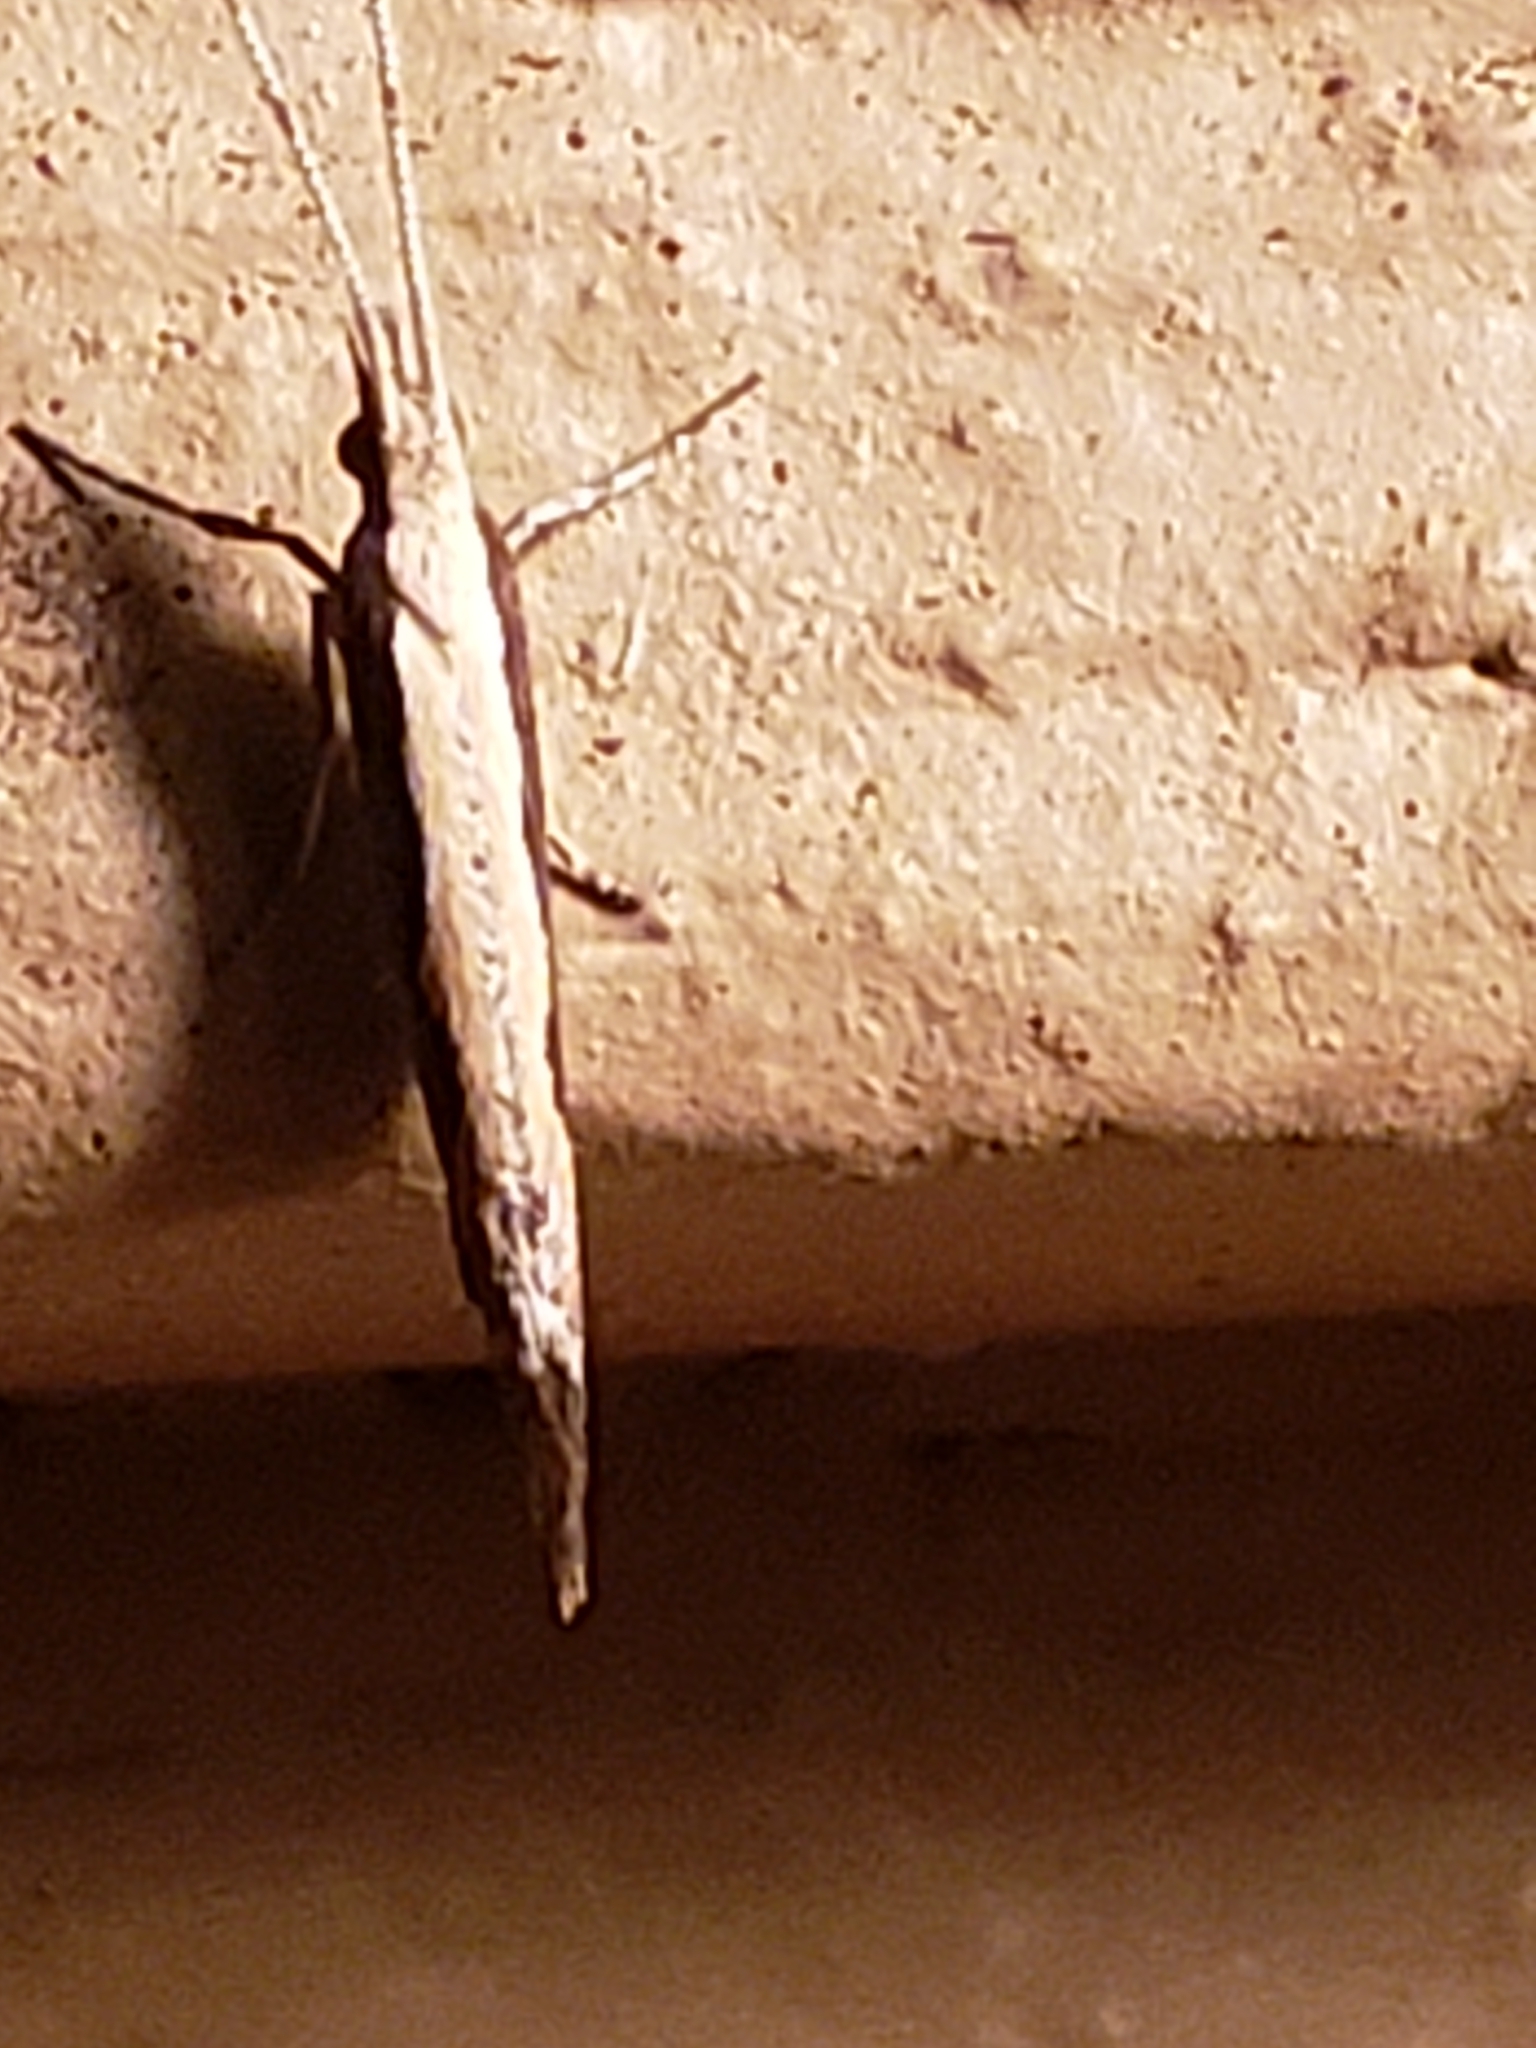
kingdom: Animalia
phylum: Arthropoda
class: Insecta
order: Lepidoptera
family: Plutellidae
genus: Plutella
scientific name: Plutella xylostella
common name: Diamond-back moth
